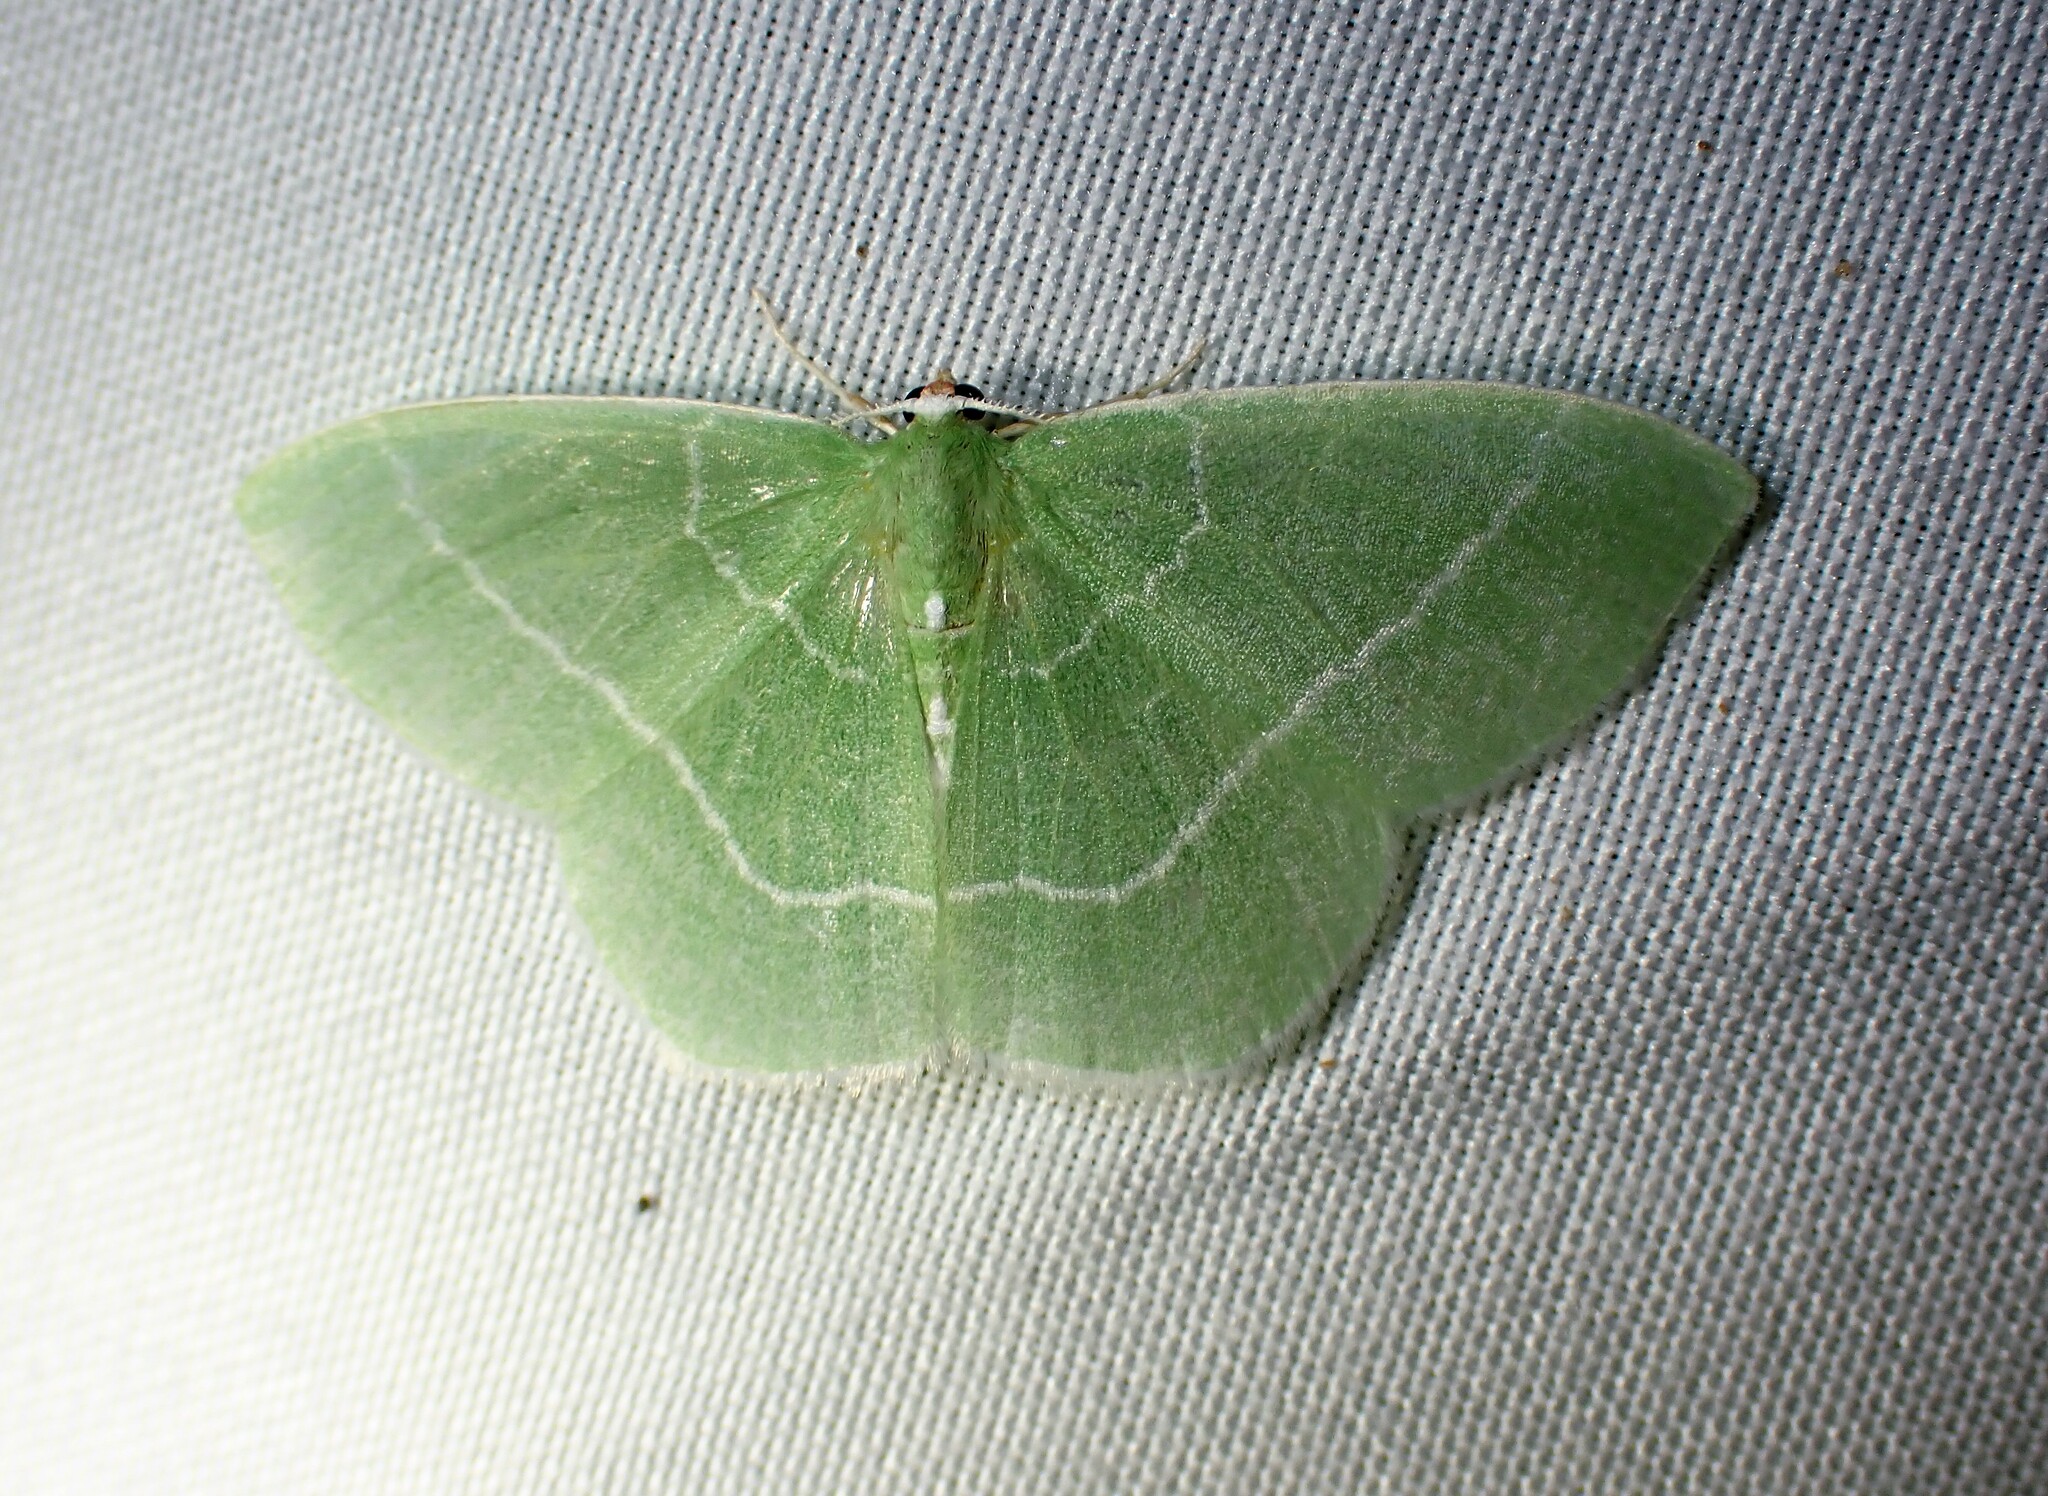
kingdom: Animalia
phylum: Arthropoda
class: Insecta
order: Lepidoptera
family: Geometridae
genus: Nemoria
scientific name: Nemoria mimosaria
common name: White-fringed emerald
